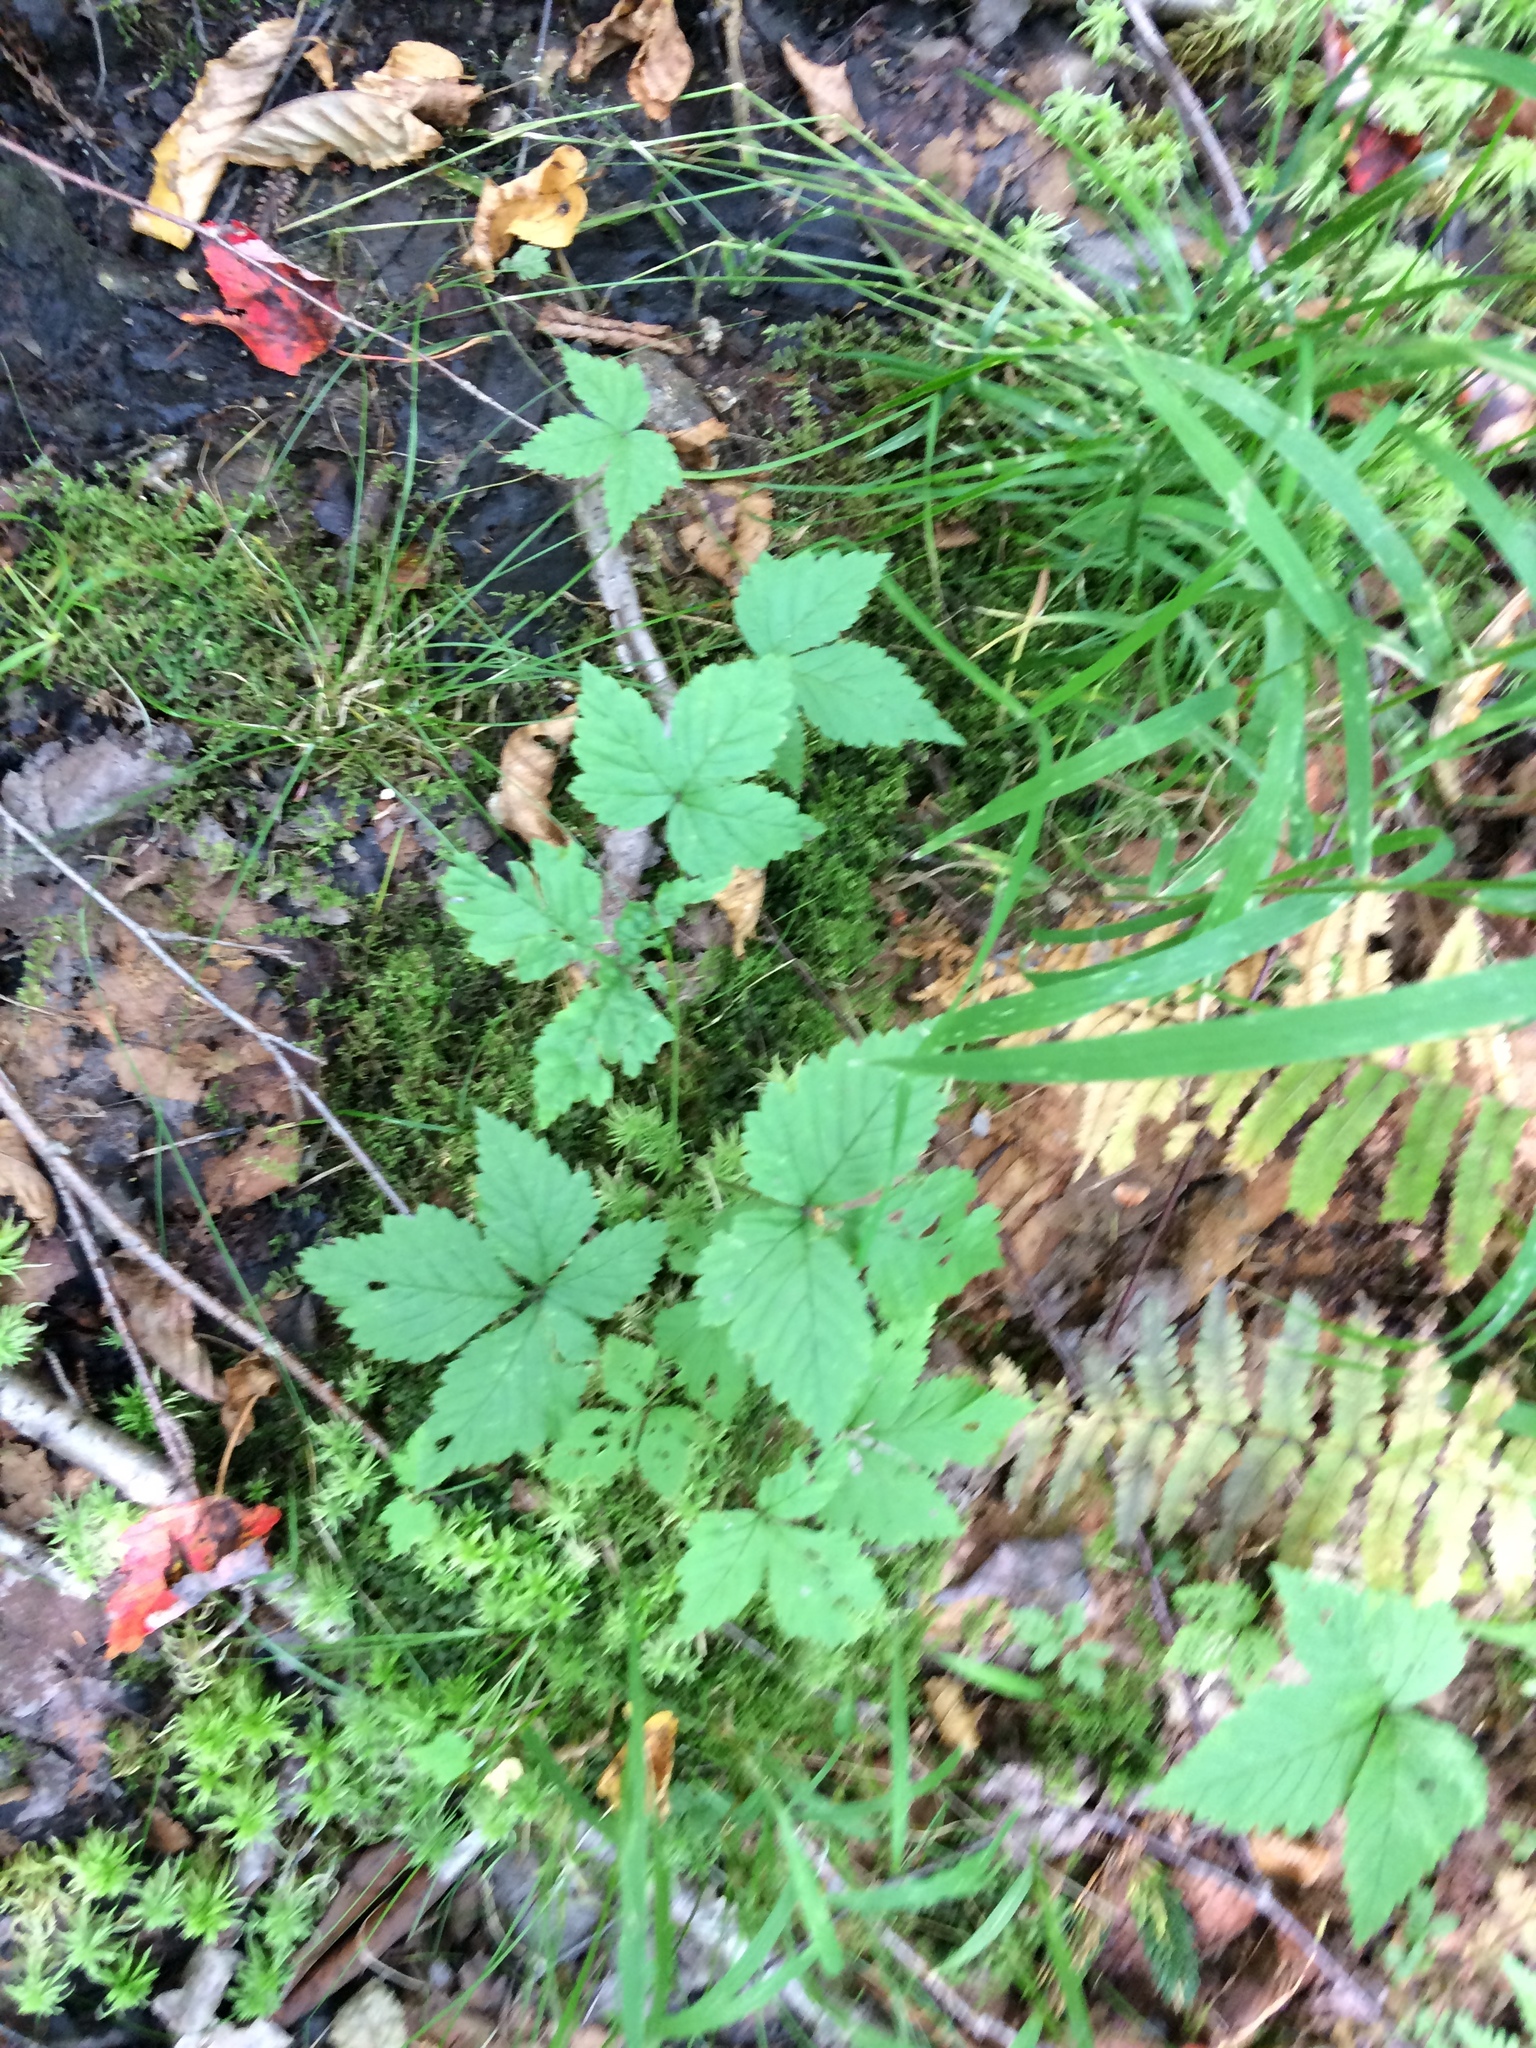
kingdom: Plantae
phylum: Tracheophyta
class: Magnoliopsida
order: Rosales
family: Rosaceae
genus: Rubus
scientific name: Rubus pubescens
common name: Dwarf raspberry
